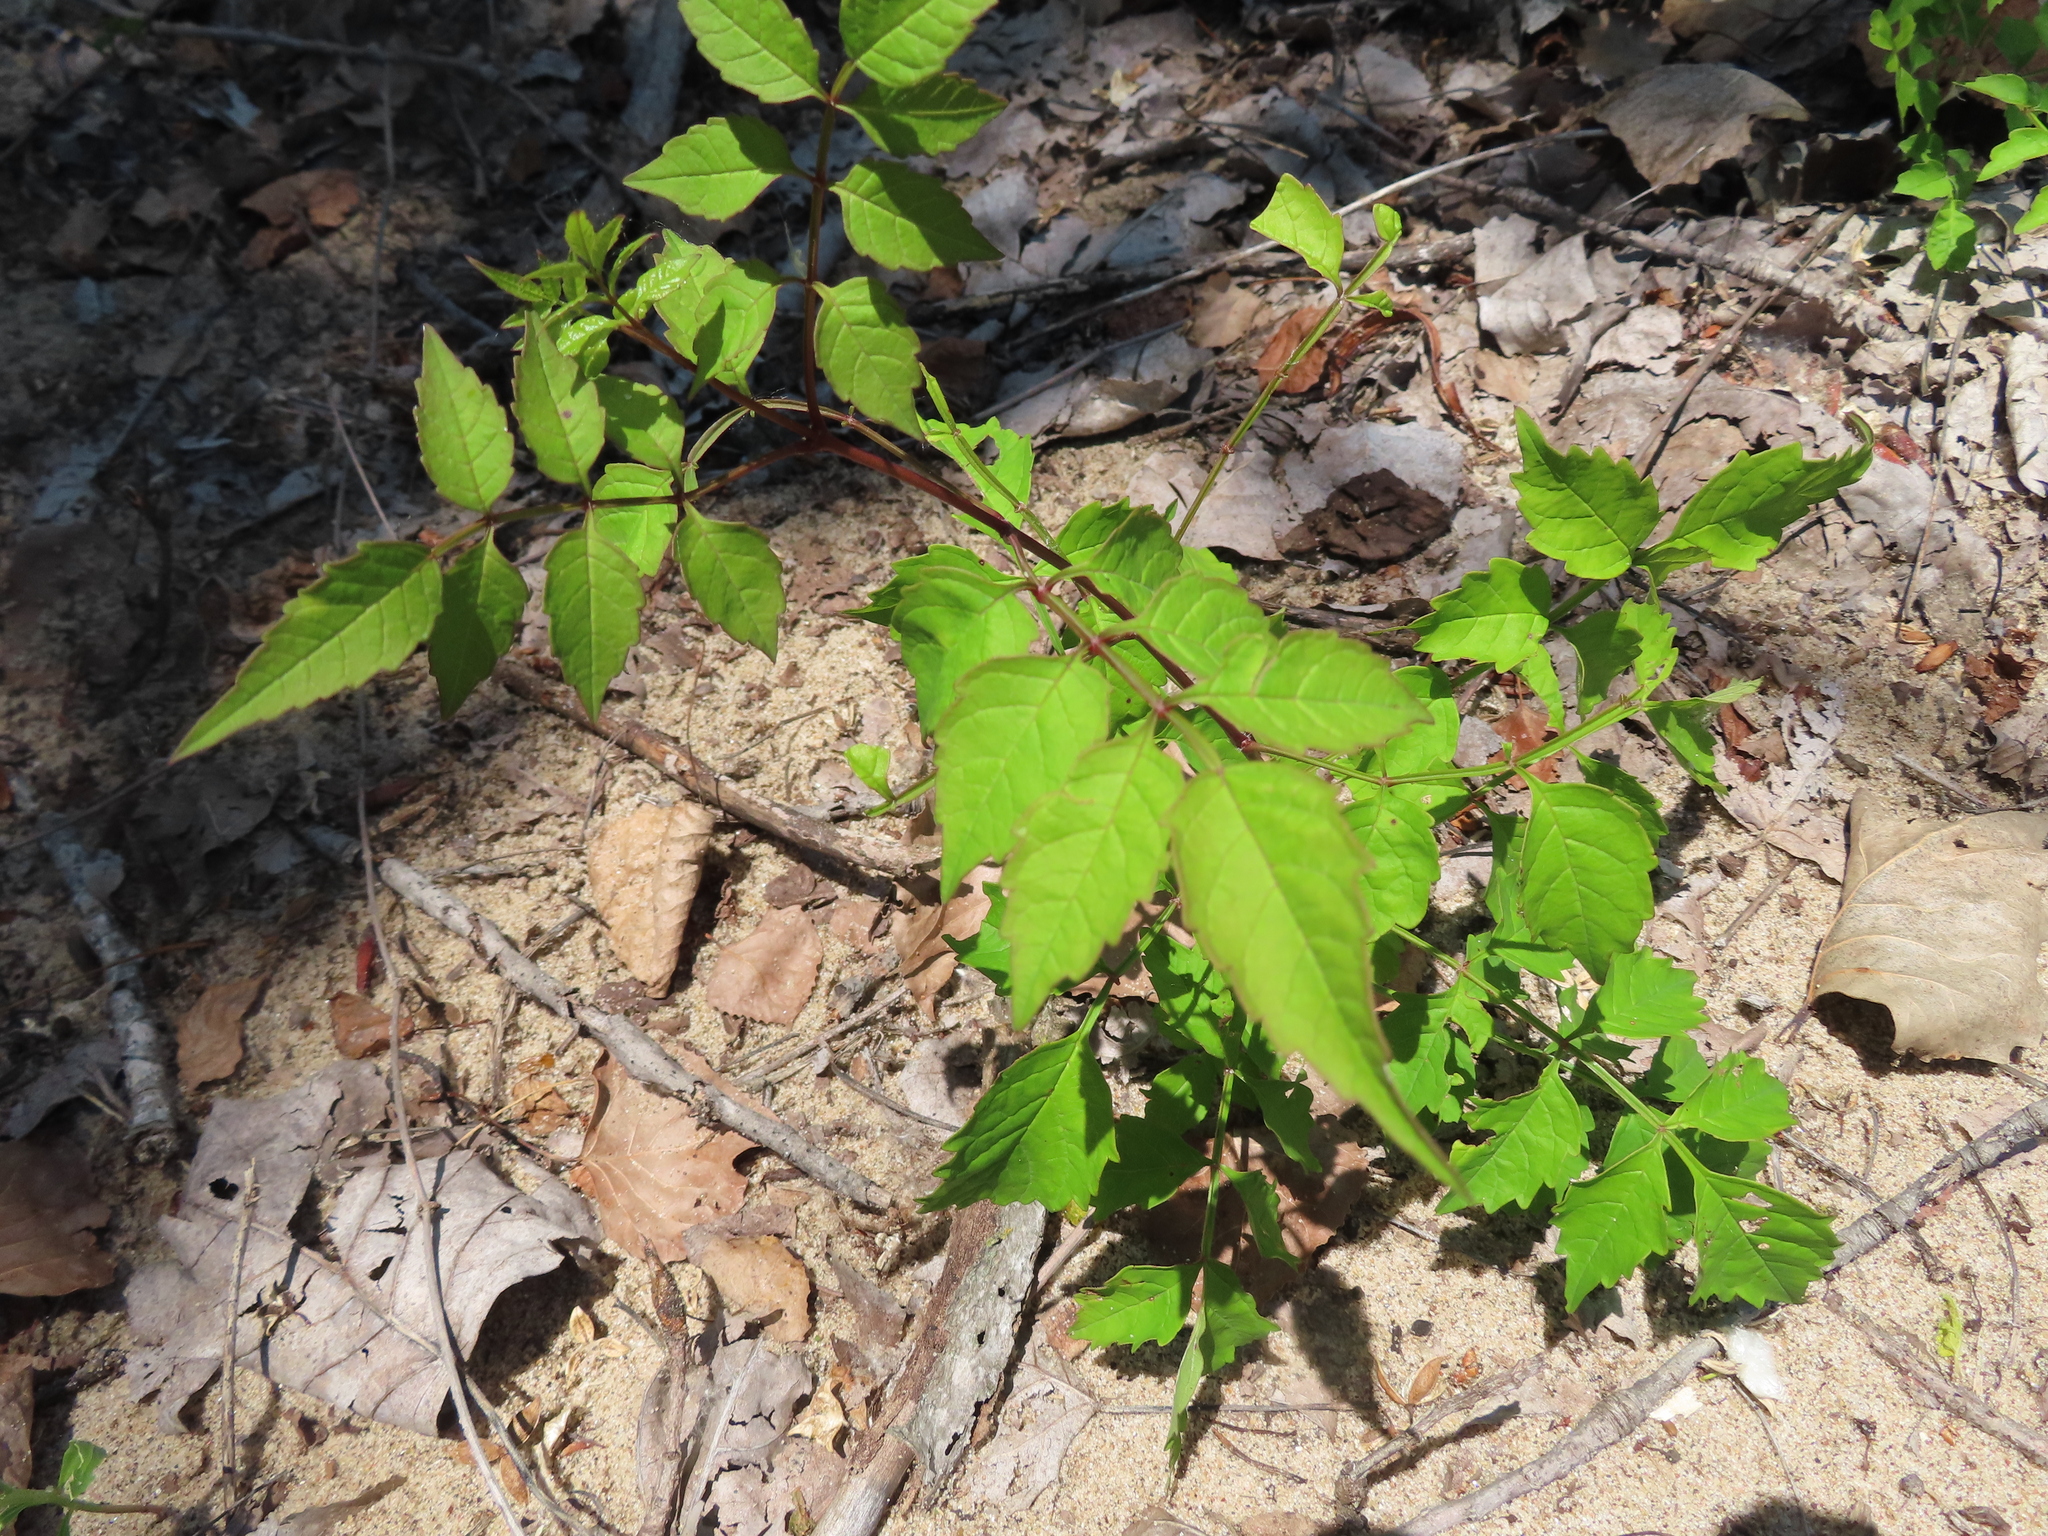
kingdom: Plantae
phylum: Tracheophyta
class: Magnoliopsida
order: Lamiales
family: Bignoniaceae
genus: Campsis
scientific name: Campsis radicans
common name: Trumpet-creeper
